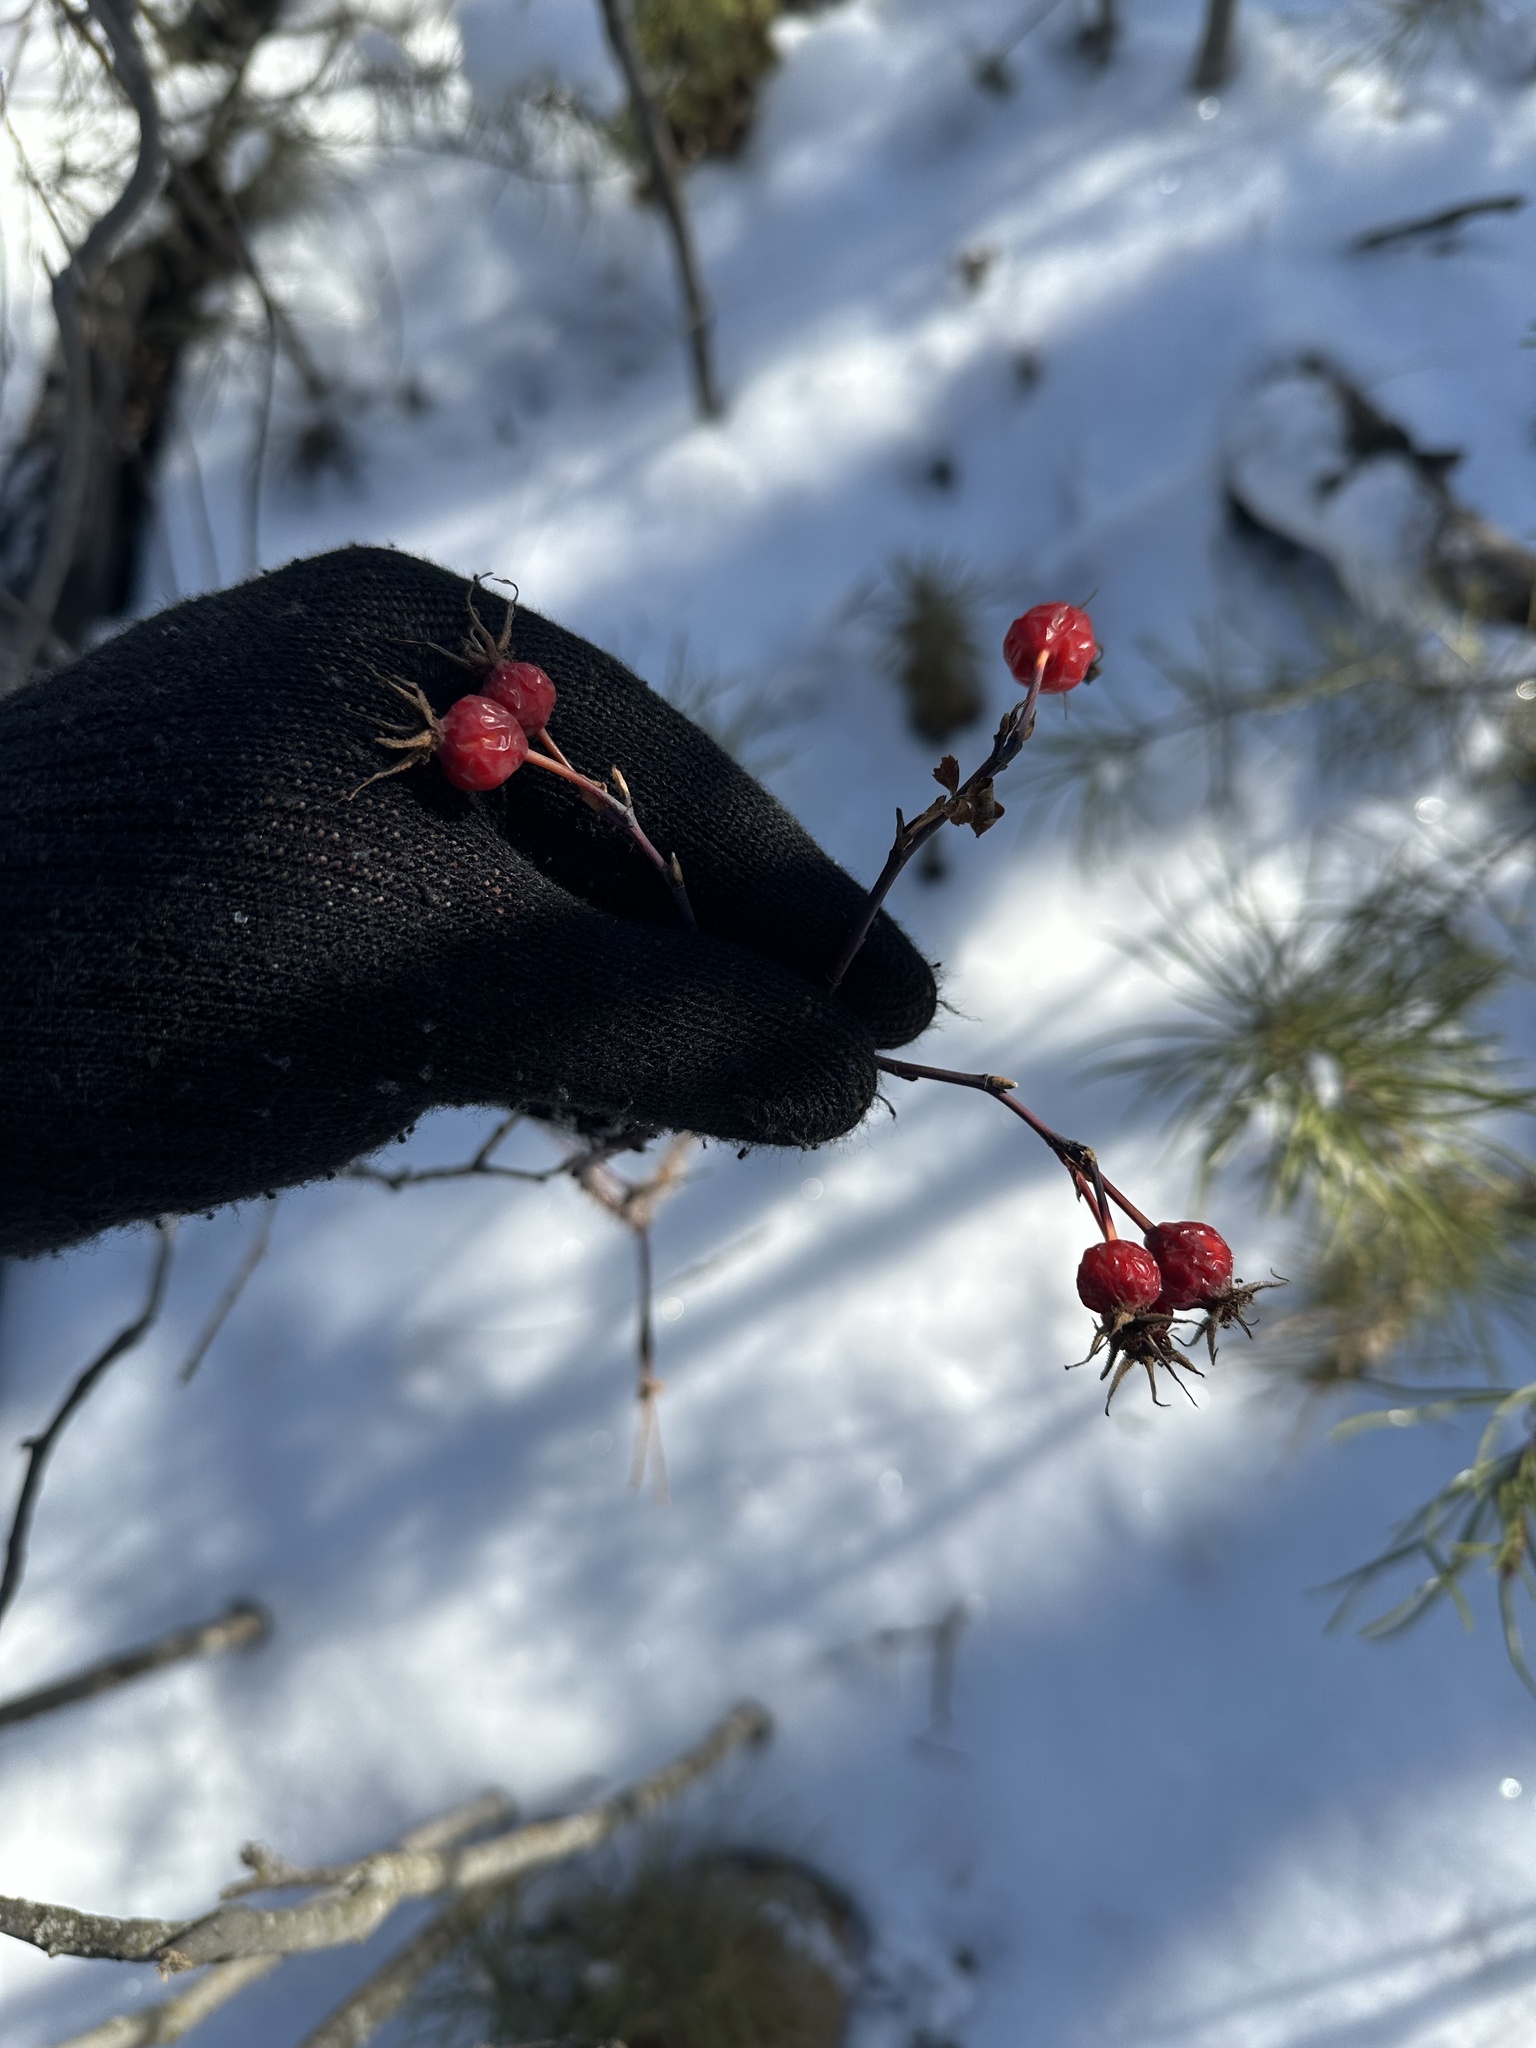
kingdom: Plantae
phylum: Tracheophyta
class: Magnoliopsida
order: Rosales
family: Rosaceae
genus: Rosa
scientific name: Rosa woodsii
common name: Woods's rose
